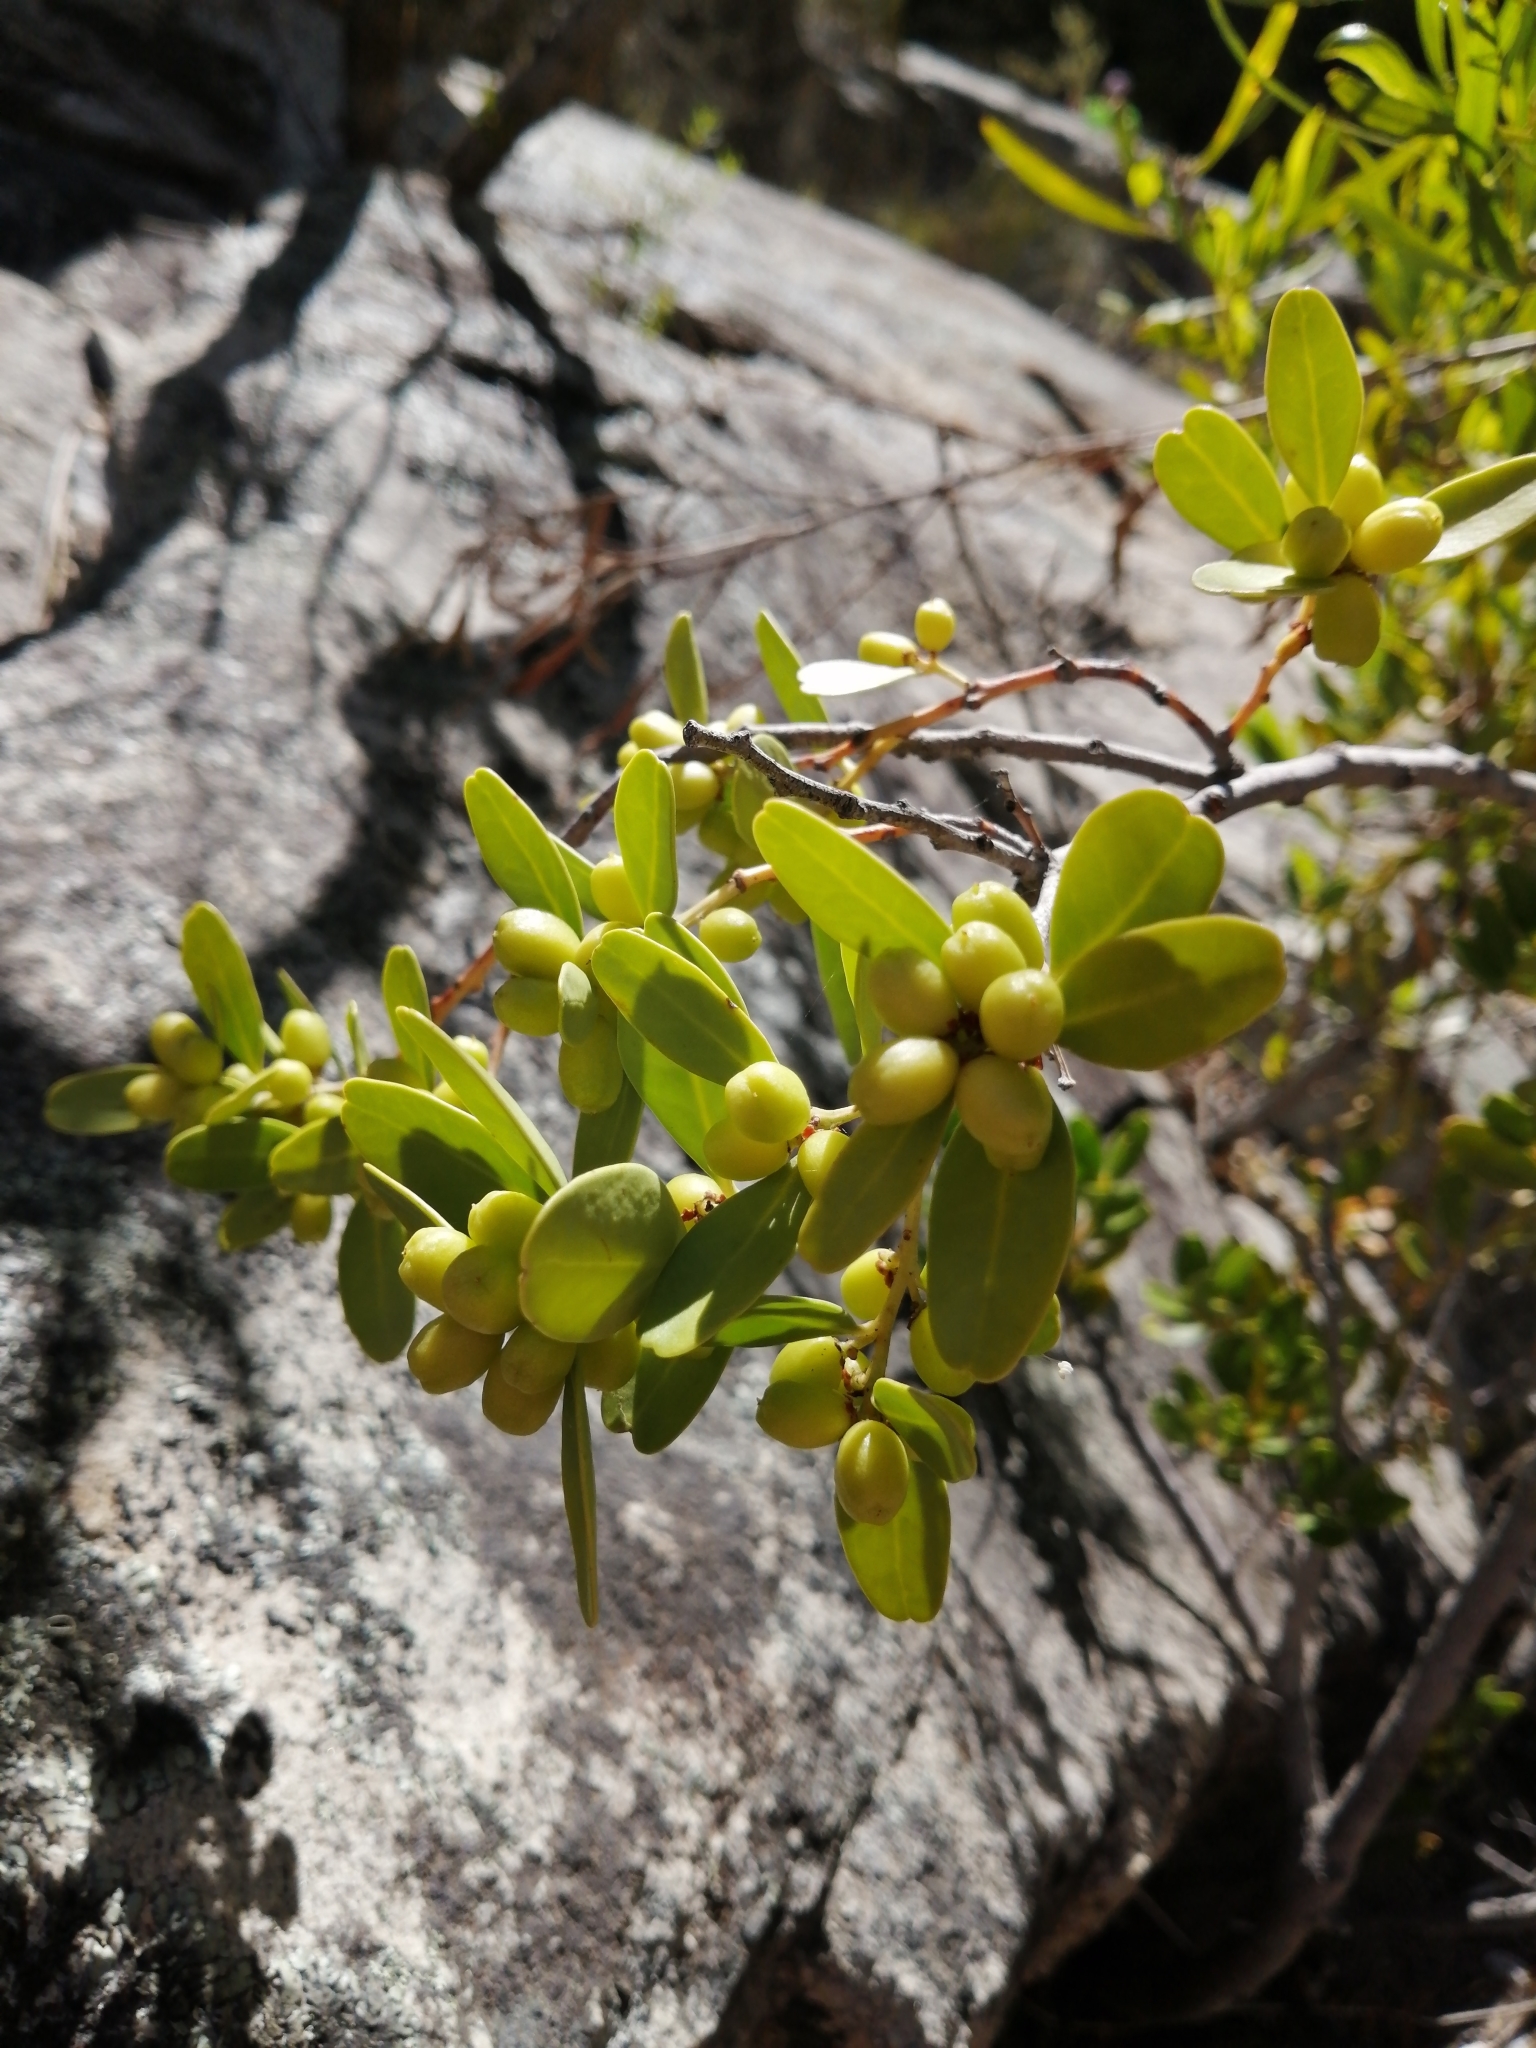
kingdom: Plantae
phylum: Tracheophyta
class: Magnoliopsida
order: Celastrales
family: Celastraceae
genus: Gymnosporia
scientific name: Gymnosporia laurina
